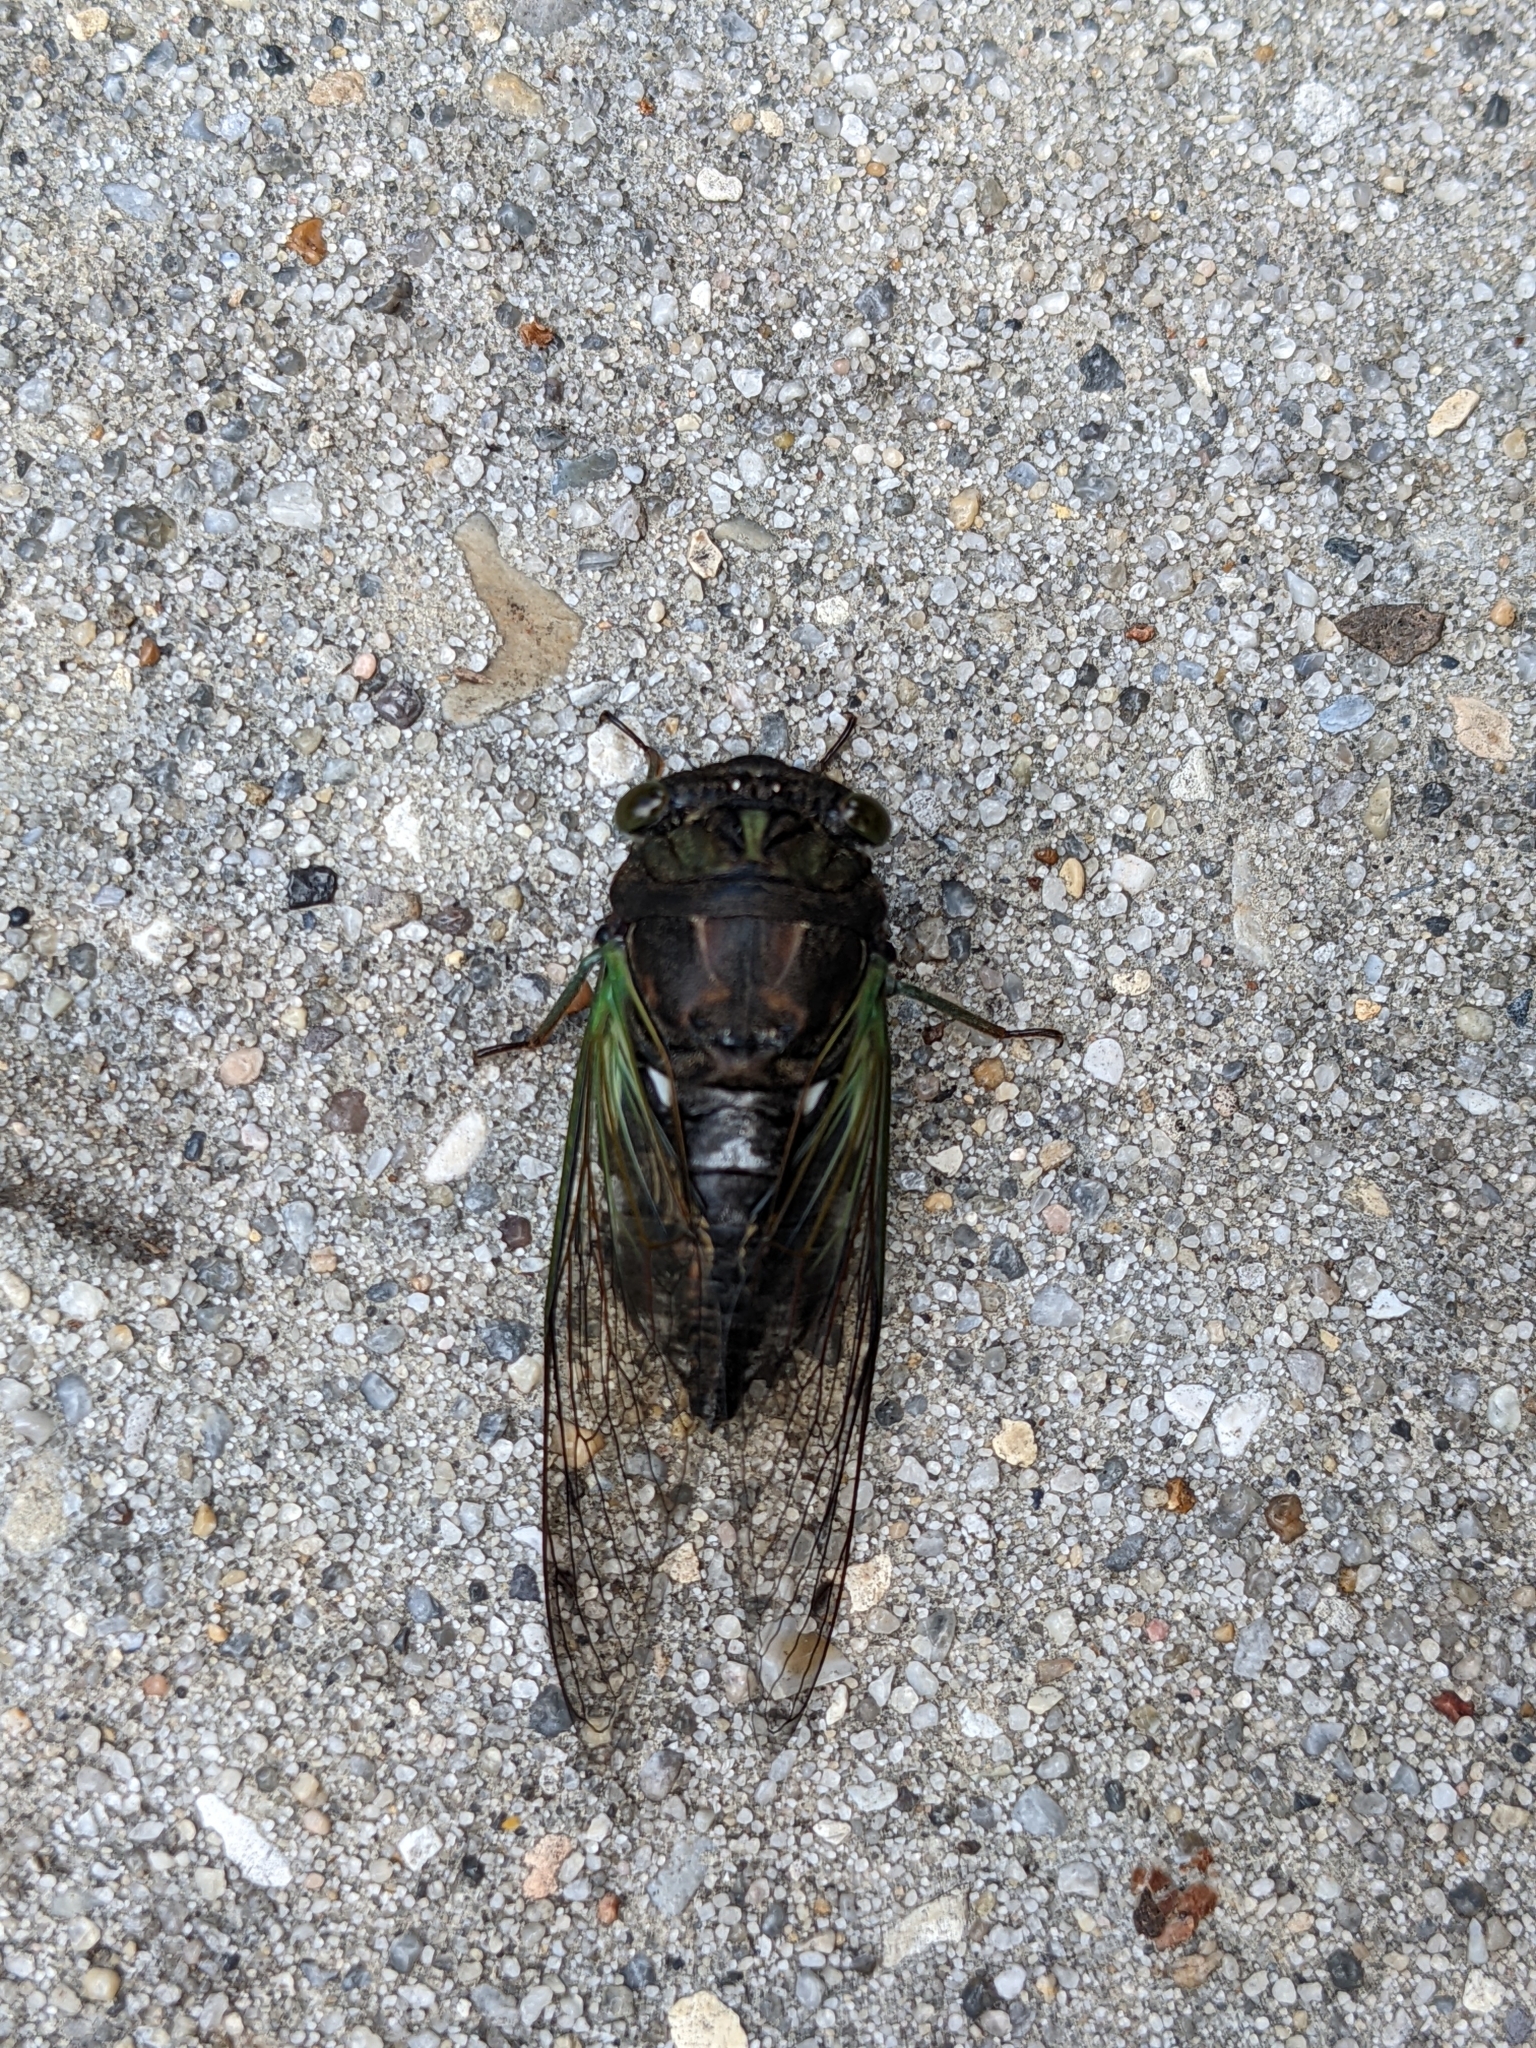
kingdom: Animalia
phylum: Arthropoda
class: Insecta
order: Hemiptera
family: Cicadidae
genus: Neotibicen
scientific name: Neotibicen tibicen
